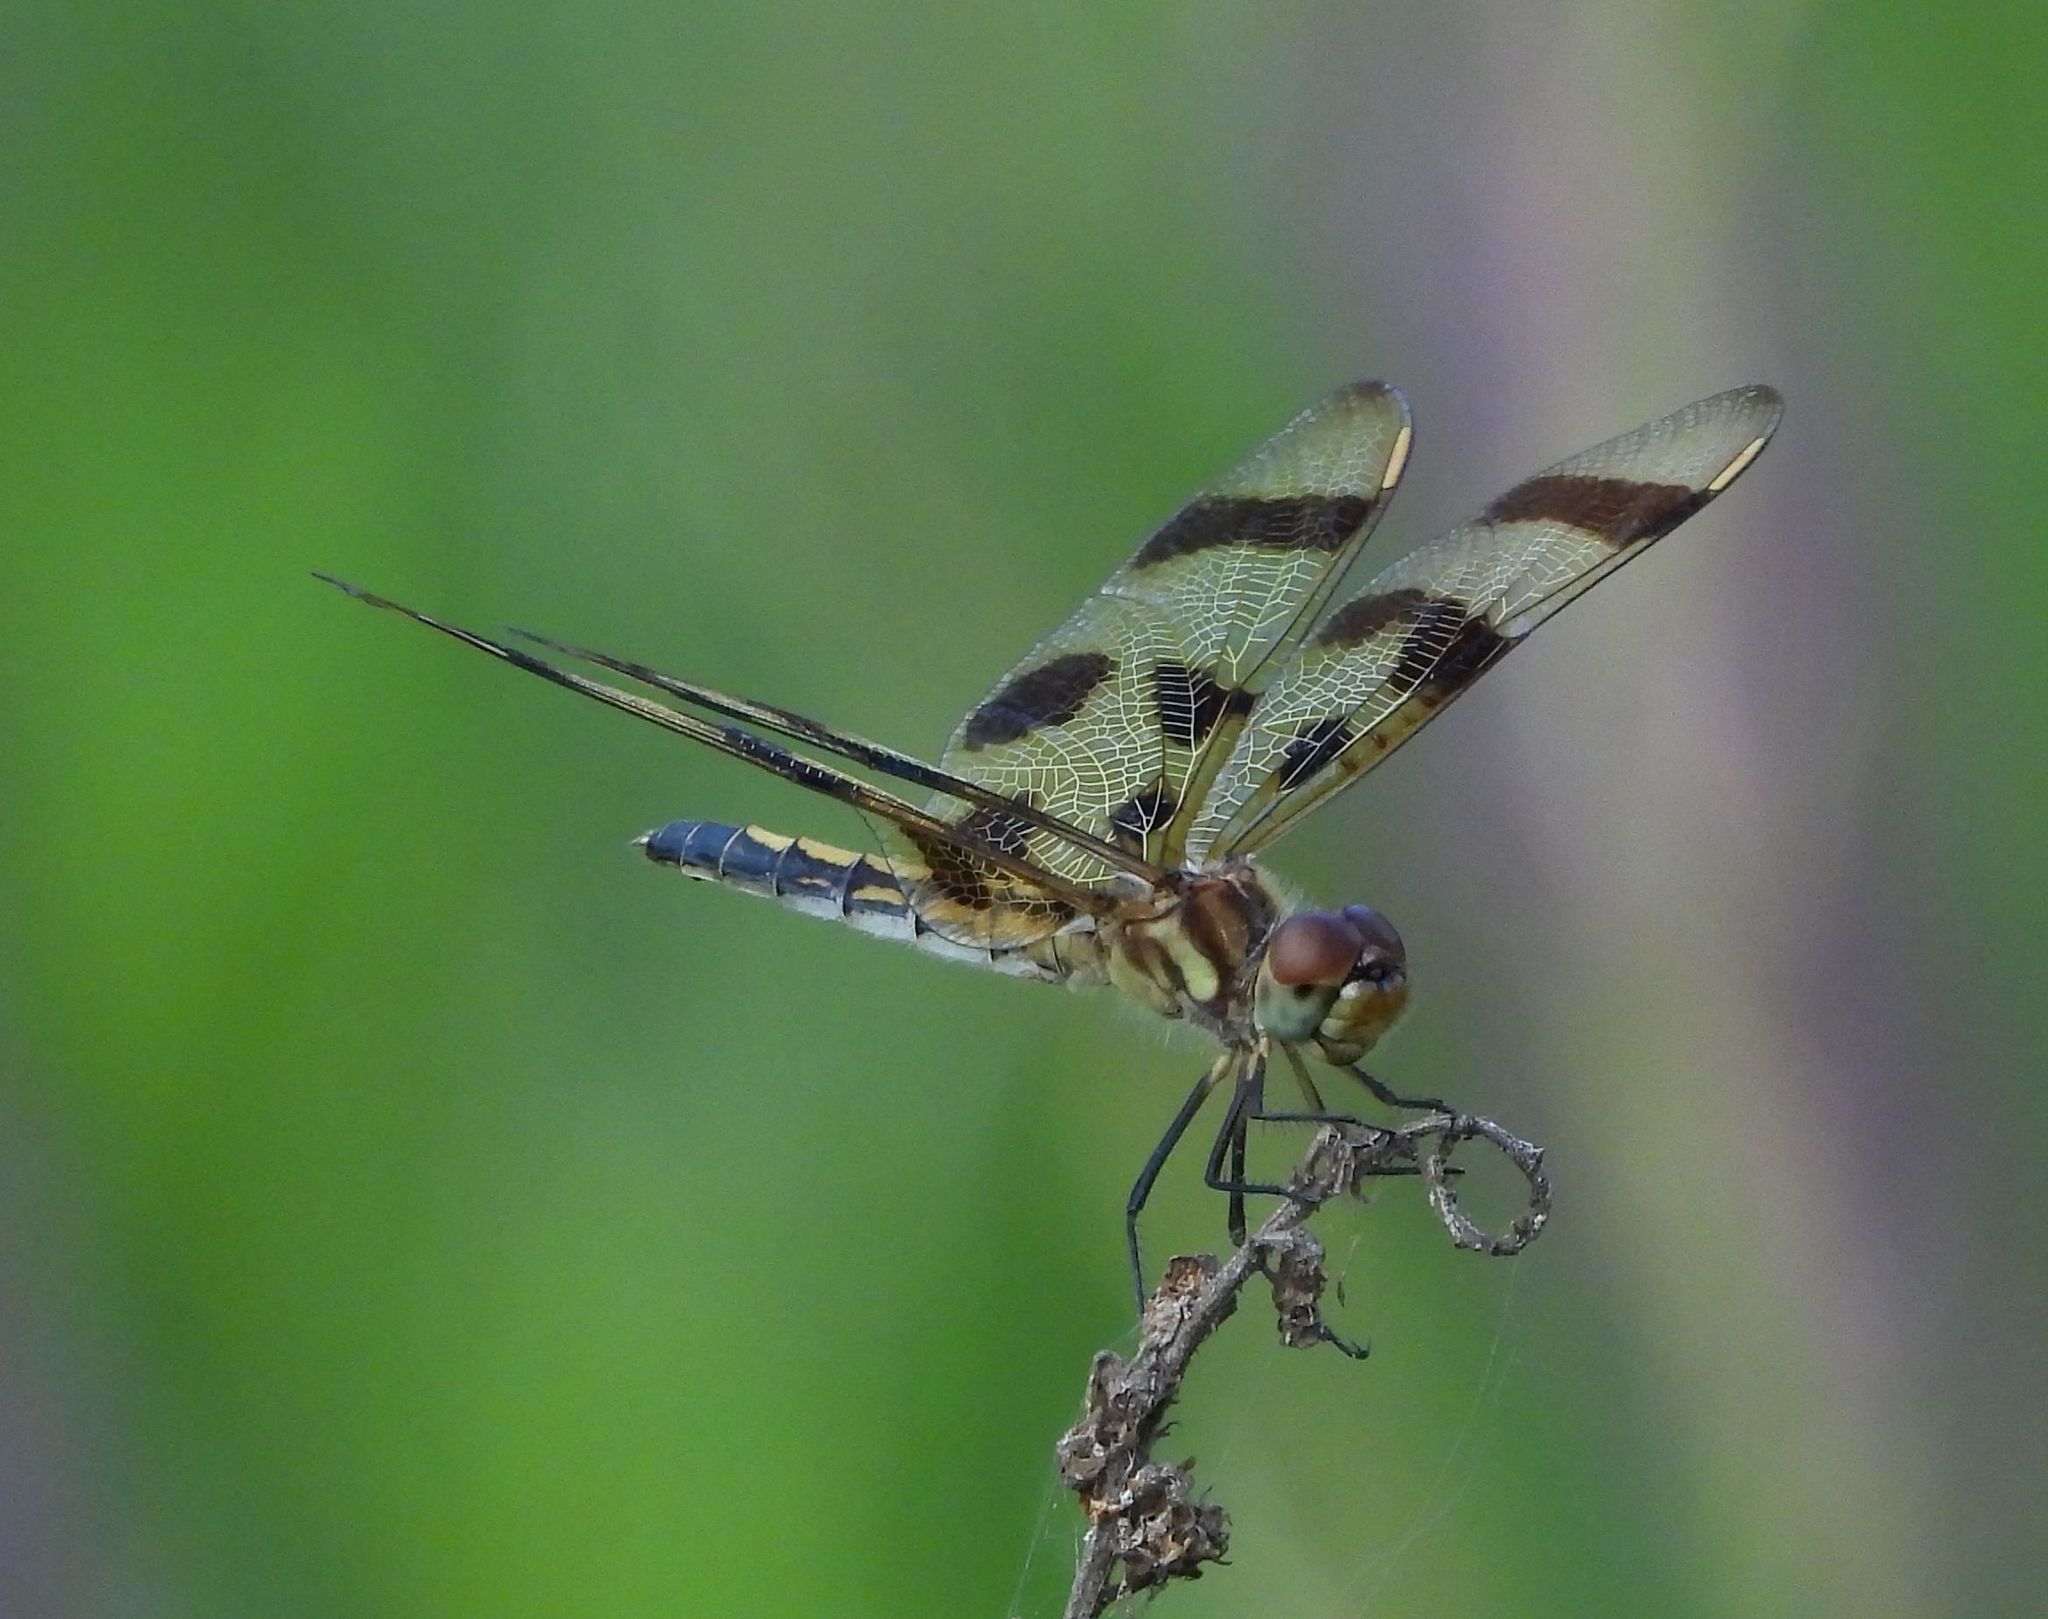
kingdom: Animalia
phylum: Arthropoda
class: Insecta
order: Odonata
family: Libellulidae
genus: Celithemis
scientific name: Celithemis eponina
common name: Halloween pennant
